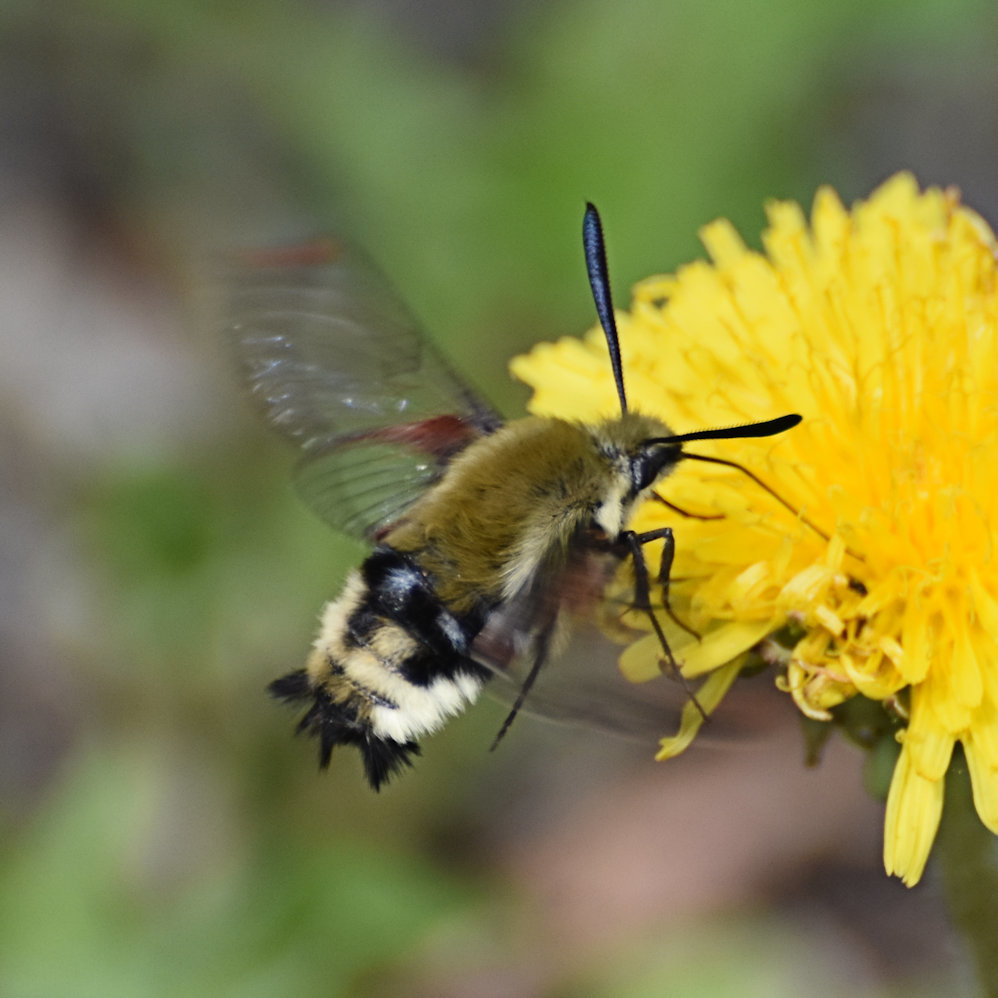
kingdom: Animalia
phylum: Arthropoda
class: Insecta
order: Lepidoptera
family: Sphingidae
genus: Hemaris
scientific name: Hemaris thetis
